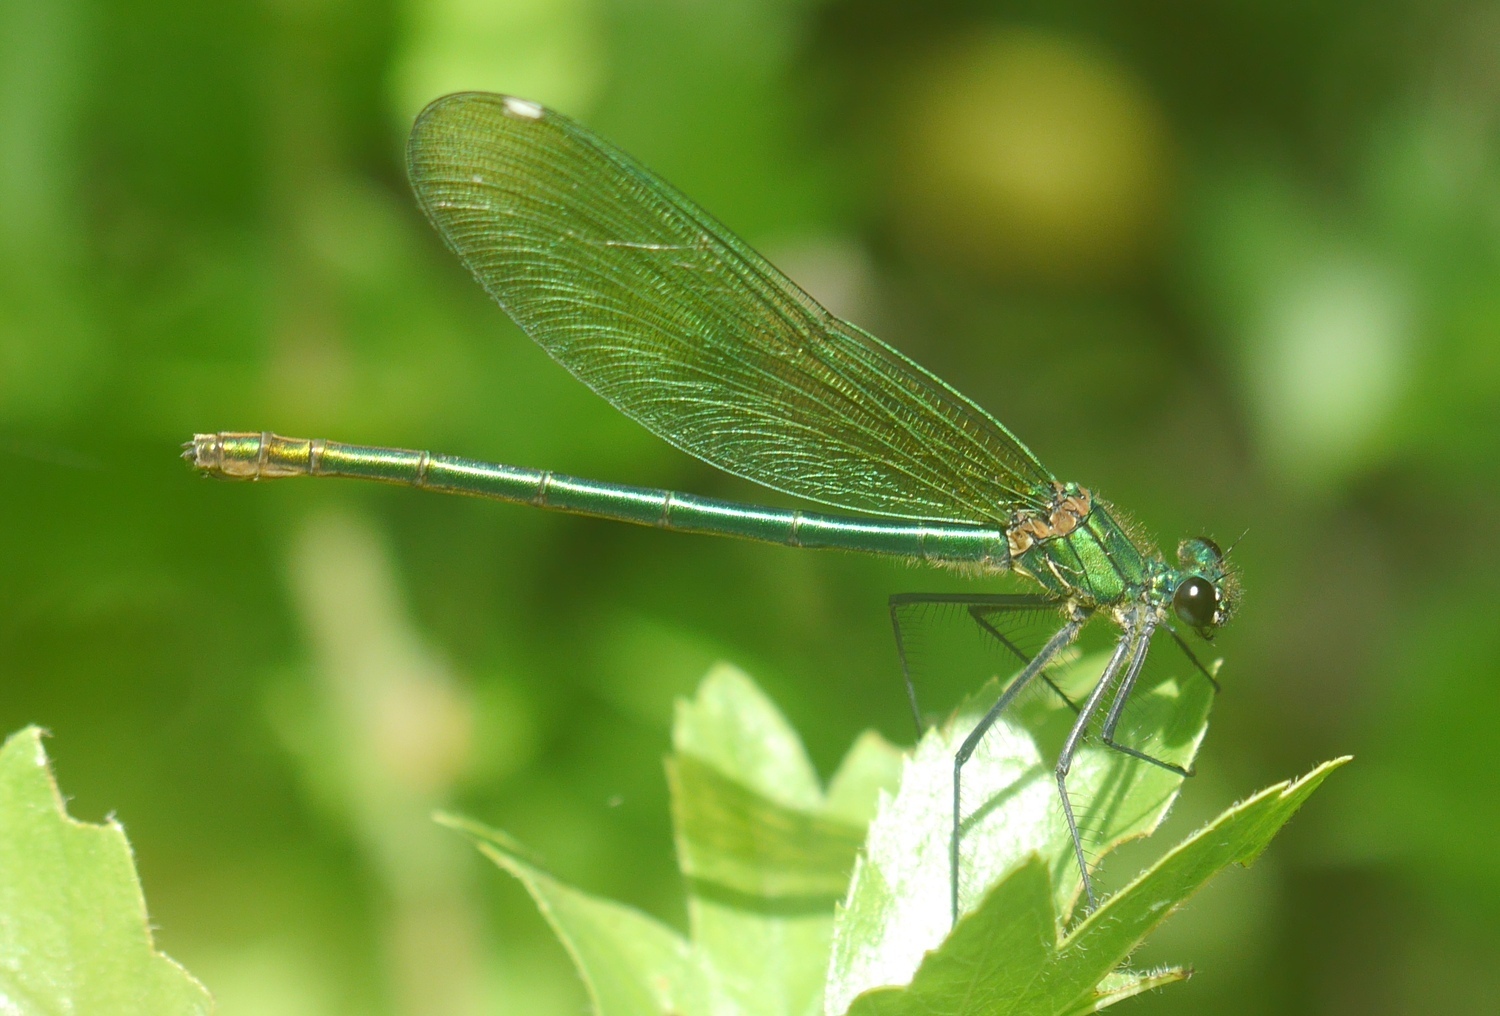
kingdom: Animalia
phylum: Arthropoda
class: Insecta
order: Odonata
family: Calopterygidae
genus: Calopteryx
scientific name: Calopteryx splendens
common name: Banded demoiselle
